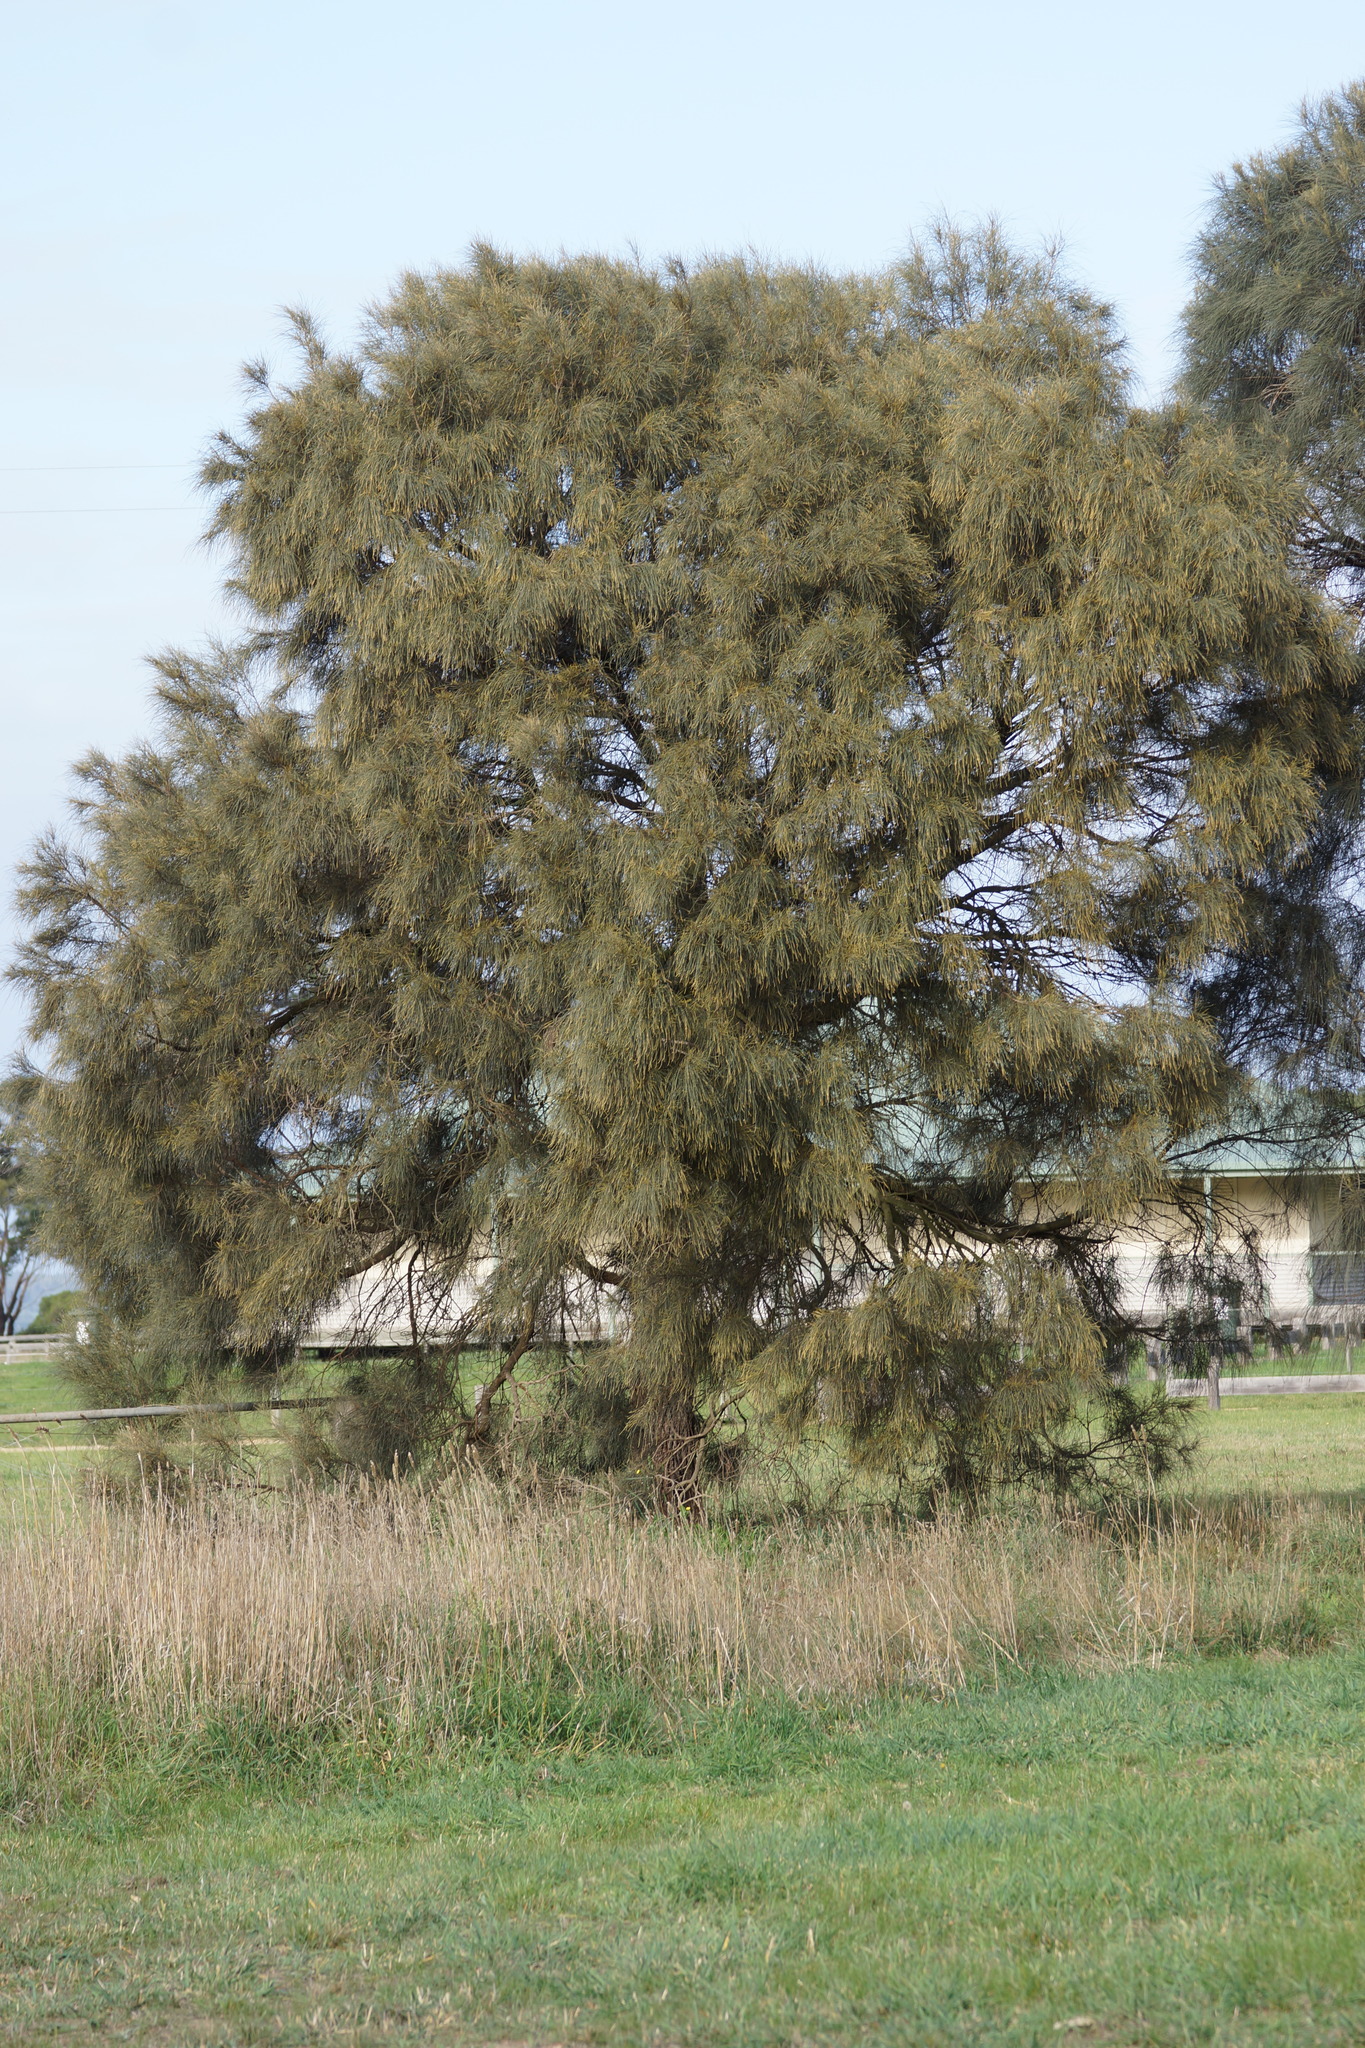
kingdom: Plantae
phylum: Tracheophyta
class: Magnoliopsida
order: Fagales
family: Casuarinaceae
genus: Allocasuarina
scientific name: Allocasuarina verticillata
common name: Drooping she-oak
